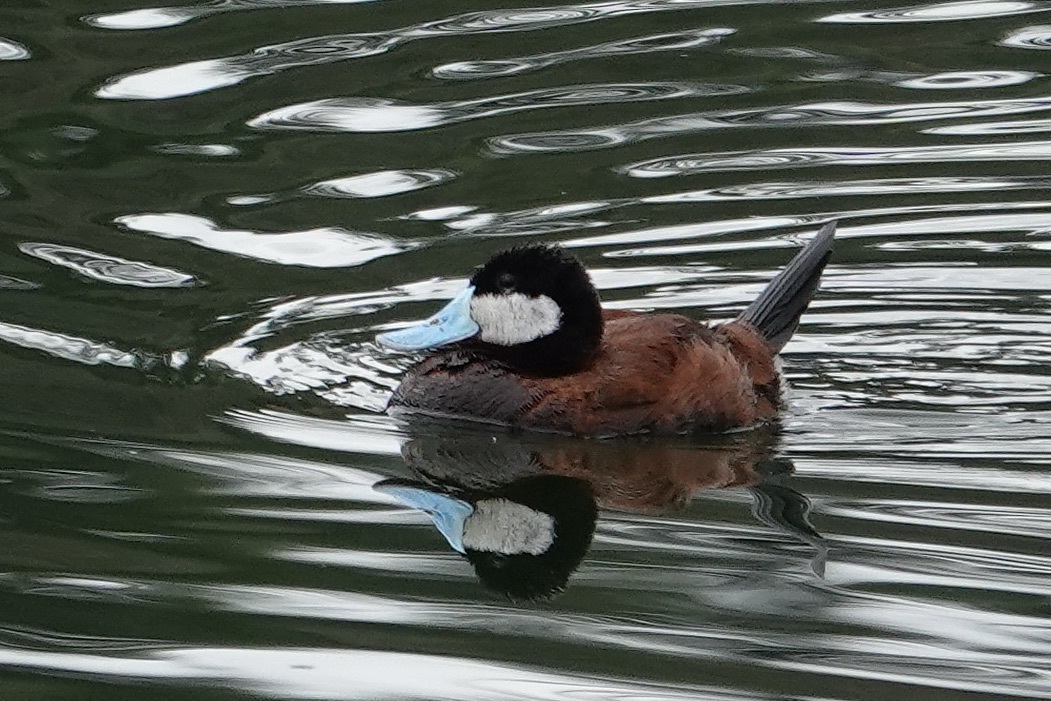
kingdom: Animalia
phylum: Chordata
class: Aves
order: Anseriformes
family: Anatidae
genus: Oxyura
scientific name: Oxyura jamaicensis
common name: Ruddy duck
